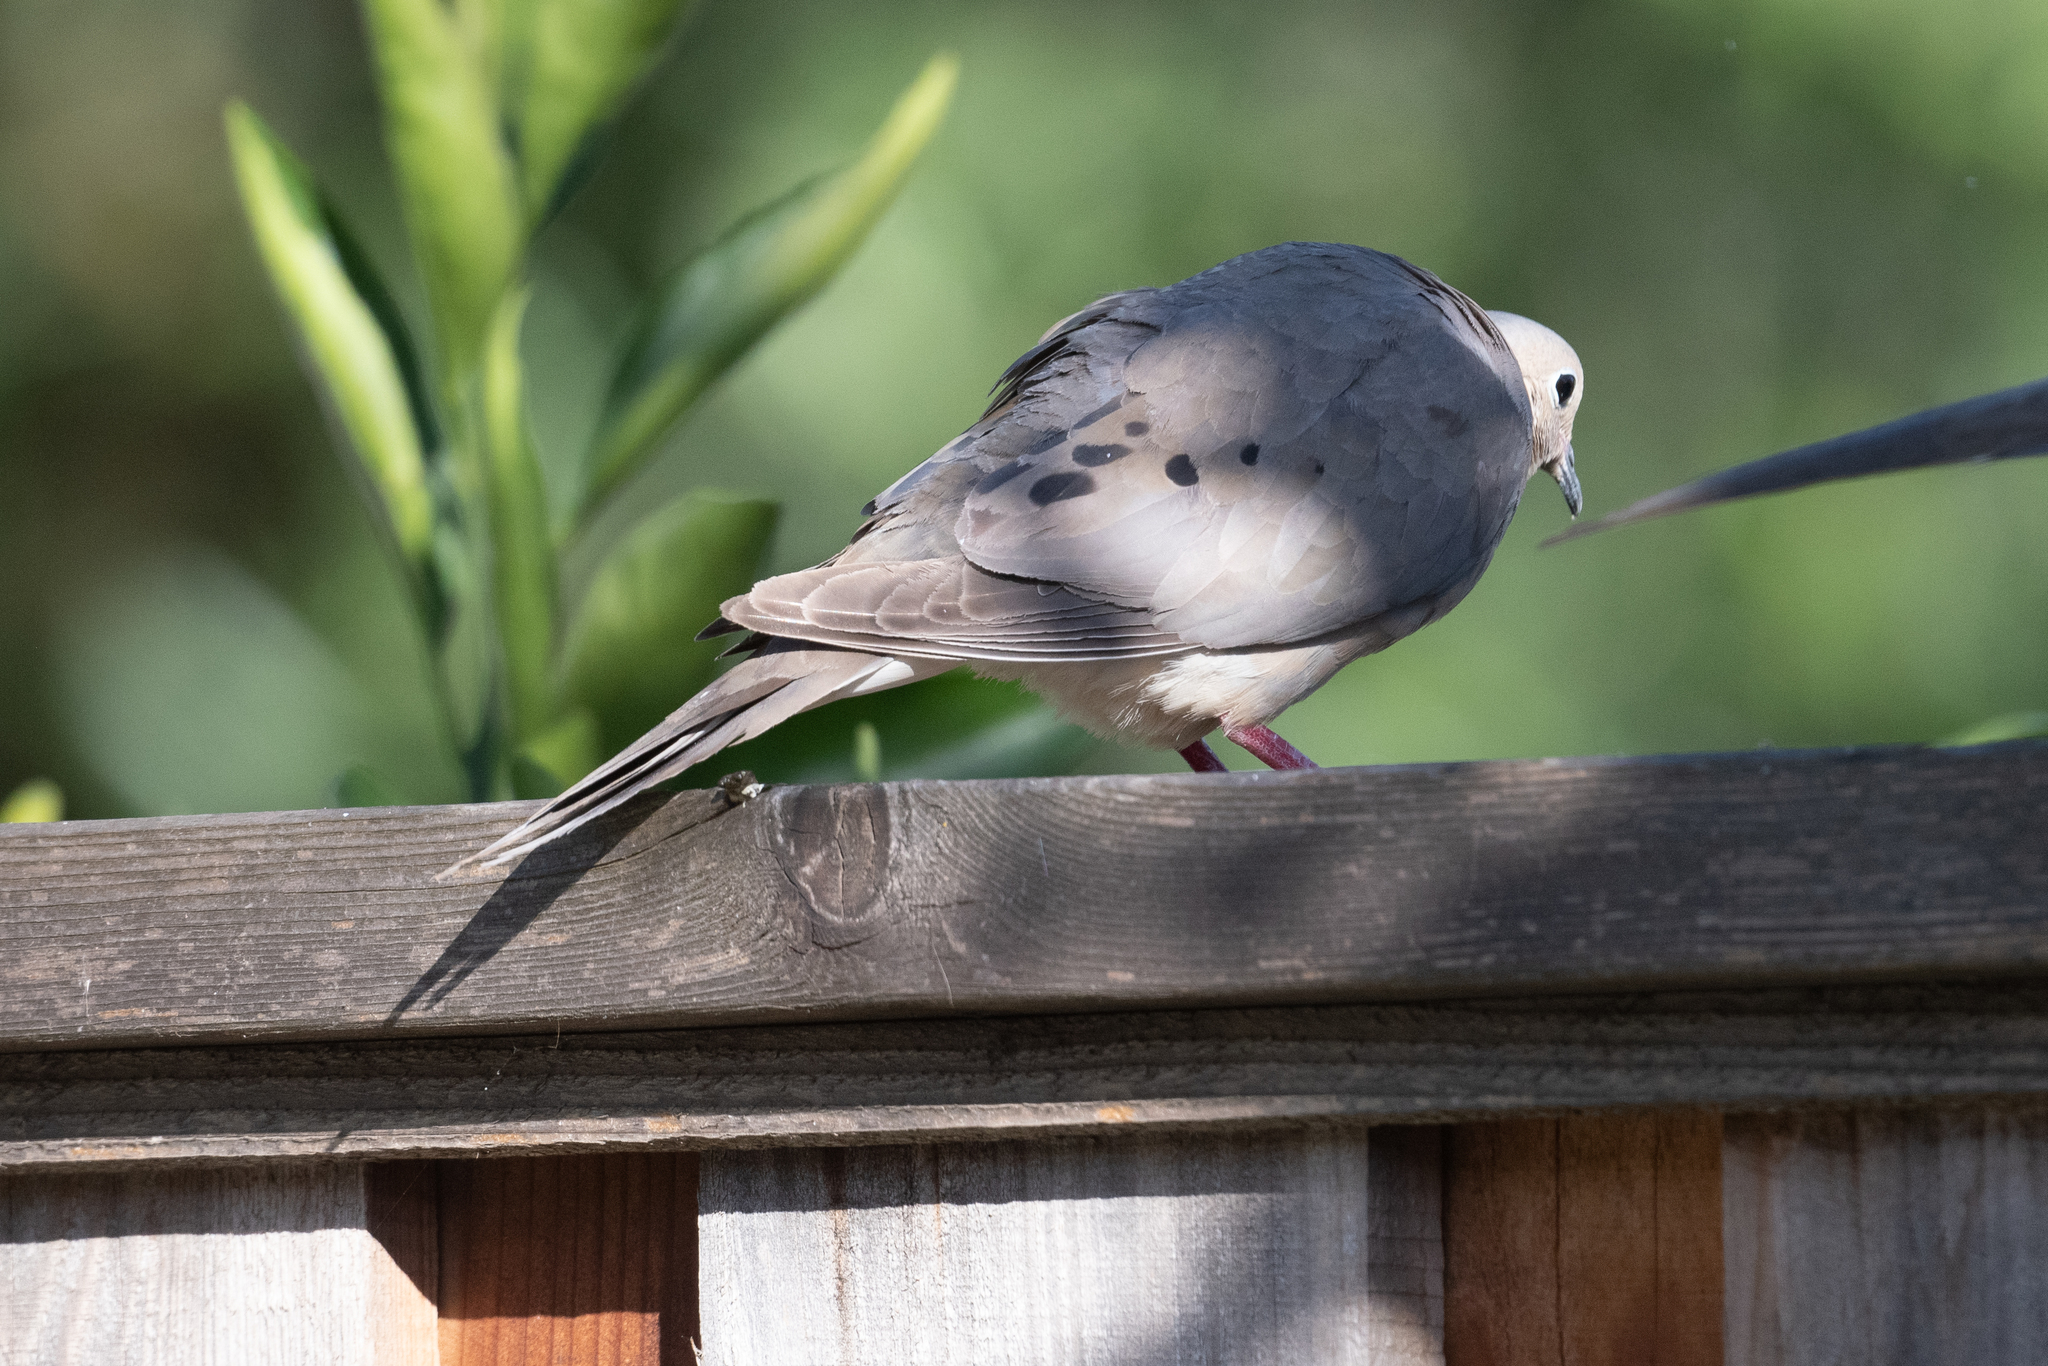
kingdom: Animalia
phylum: Chordata
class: Aves
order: Columbiformes
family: Columbidae
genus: Zenaida
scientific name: Zenaida macroura
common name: Mourning dove
